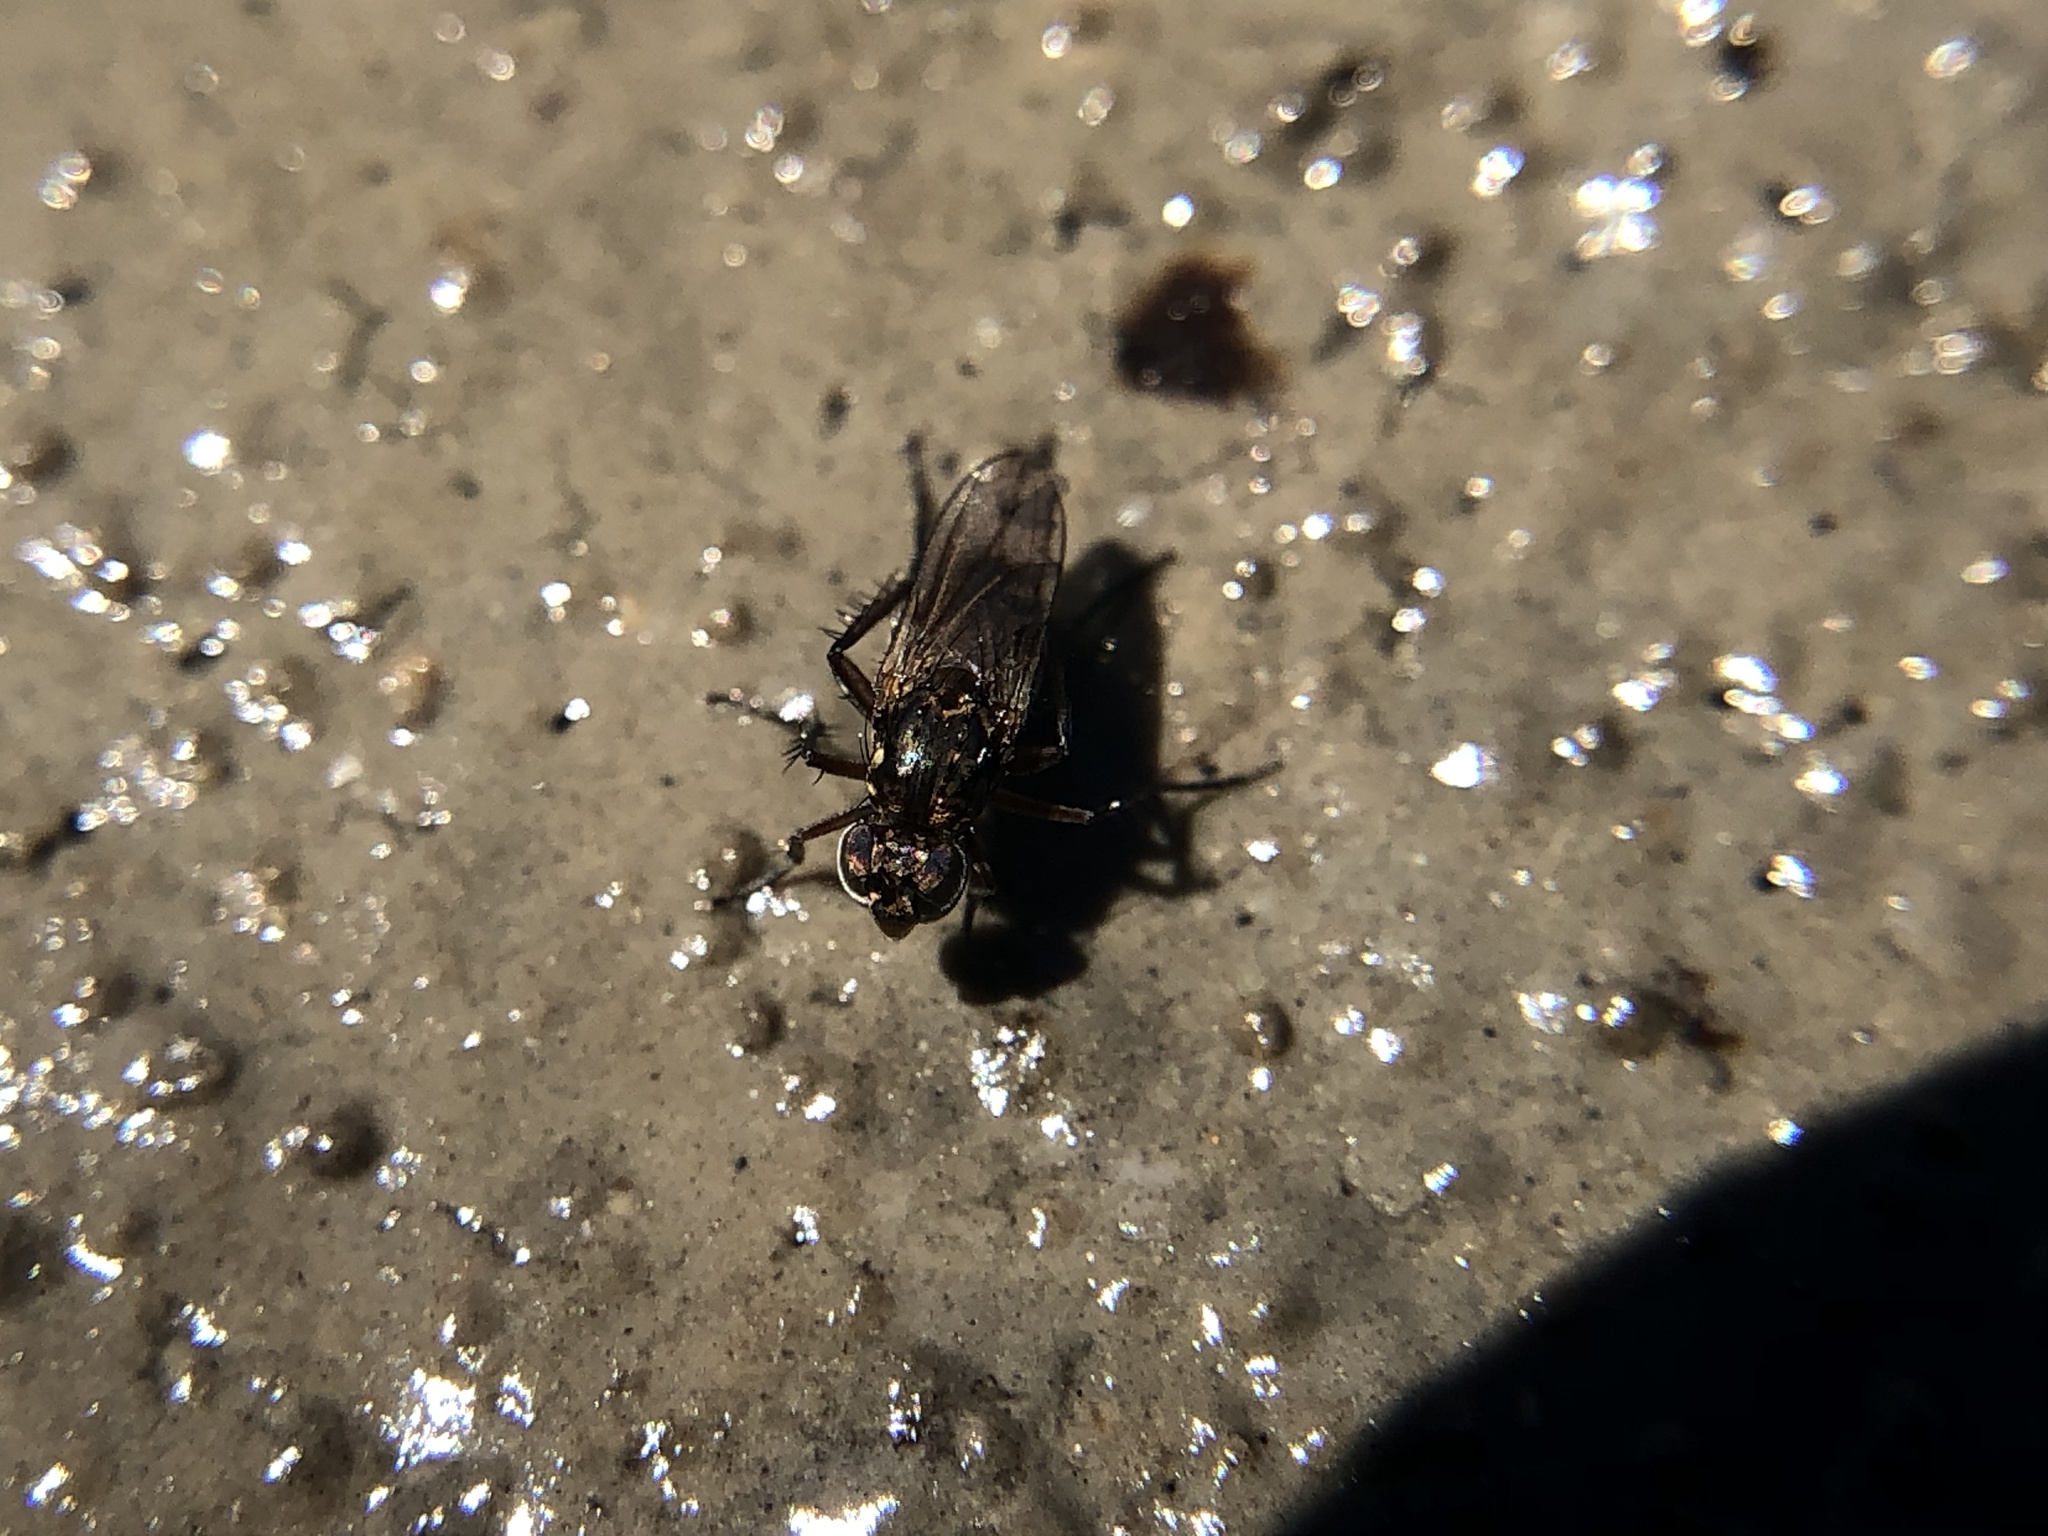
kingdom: Animalia
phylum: Arthropoda
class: Insecta
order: Diptera
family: Dolichopodidae
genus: Pelastoneurus
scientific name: Pelastoneurus
